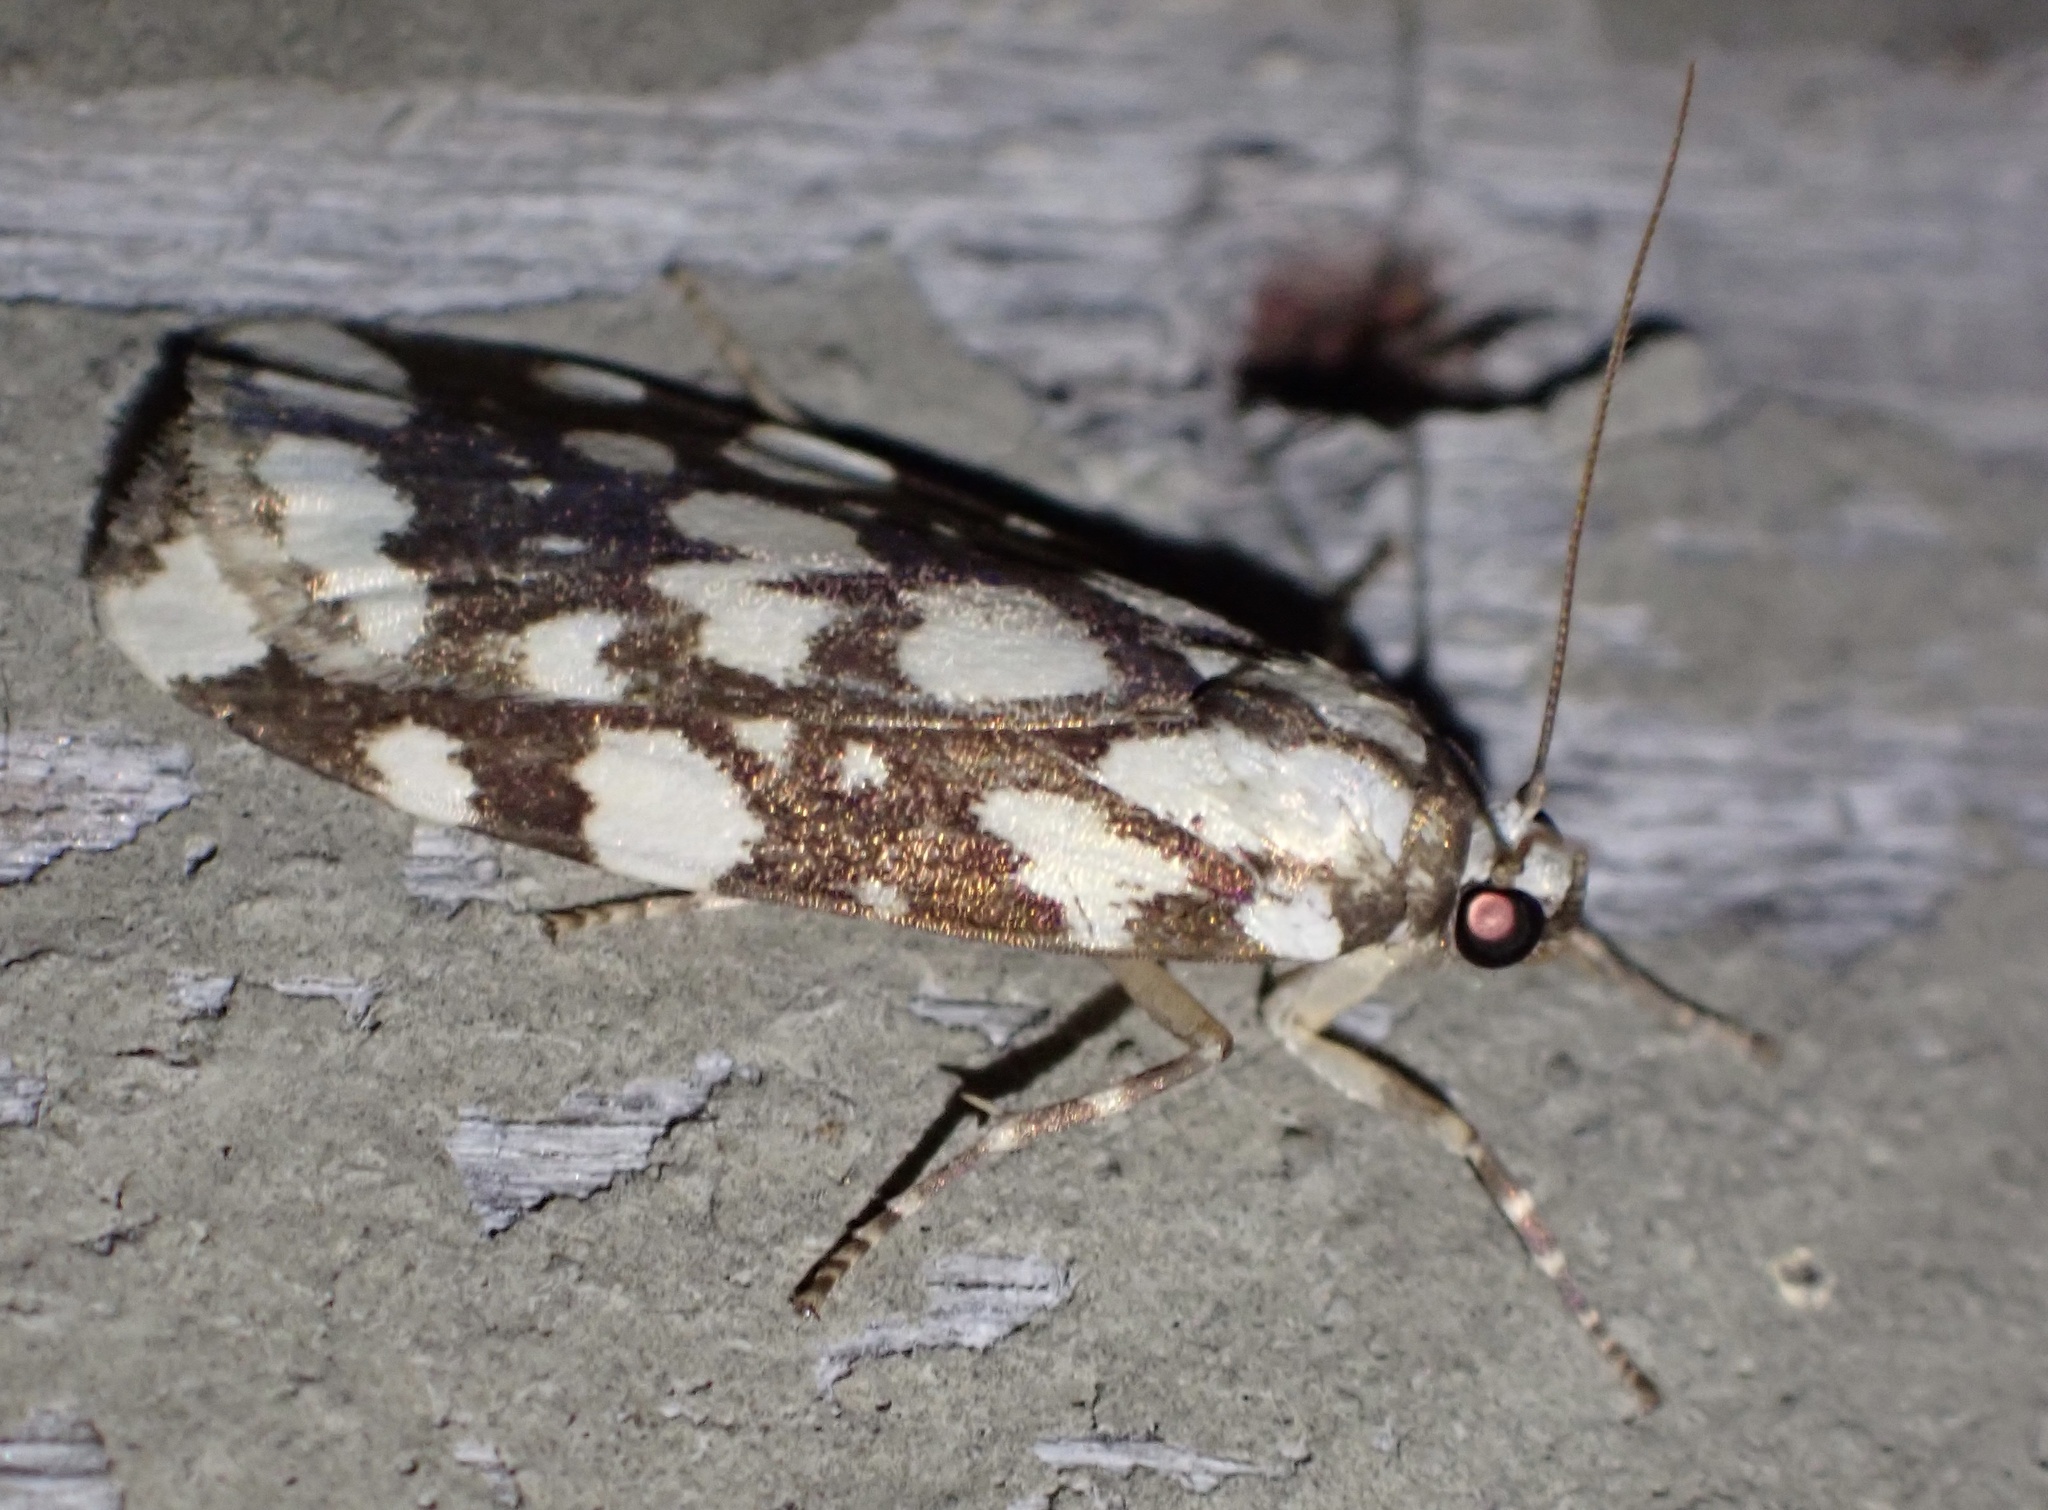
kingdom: Animalia
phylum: Arthropoda
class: Insecta
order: Lepidoptera
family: Erebidae
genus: Cyana
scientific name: Cyana nigroplagata
